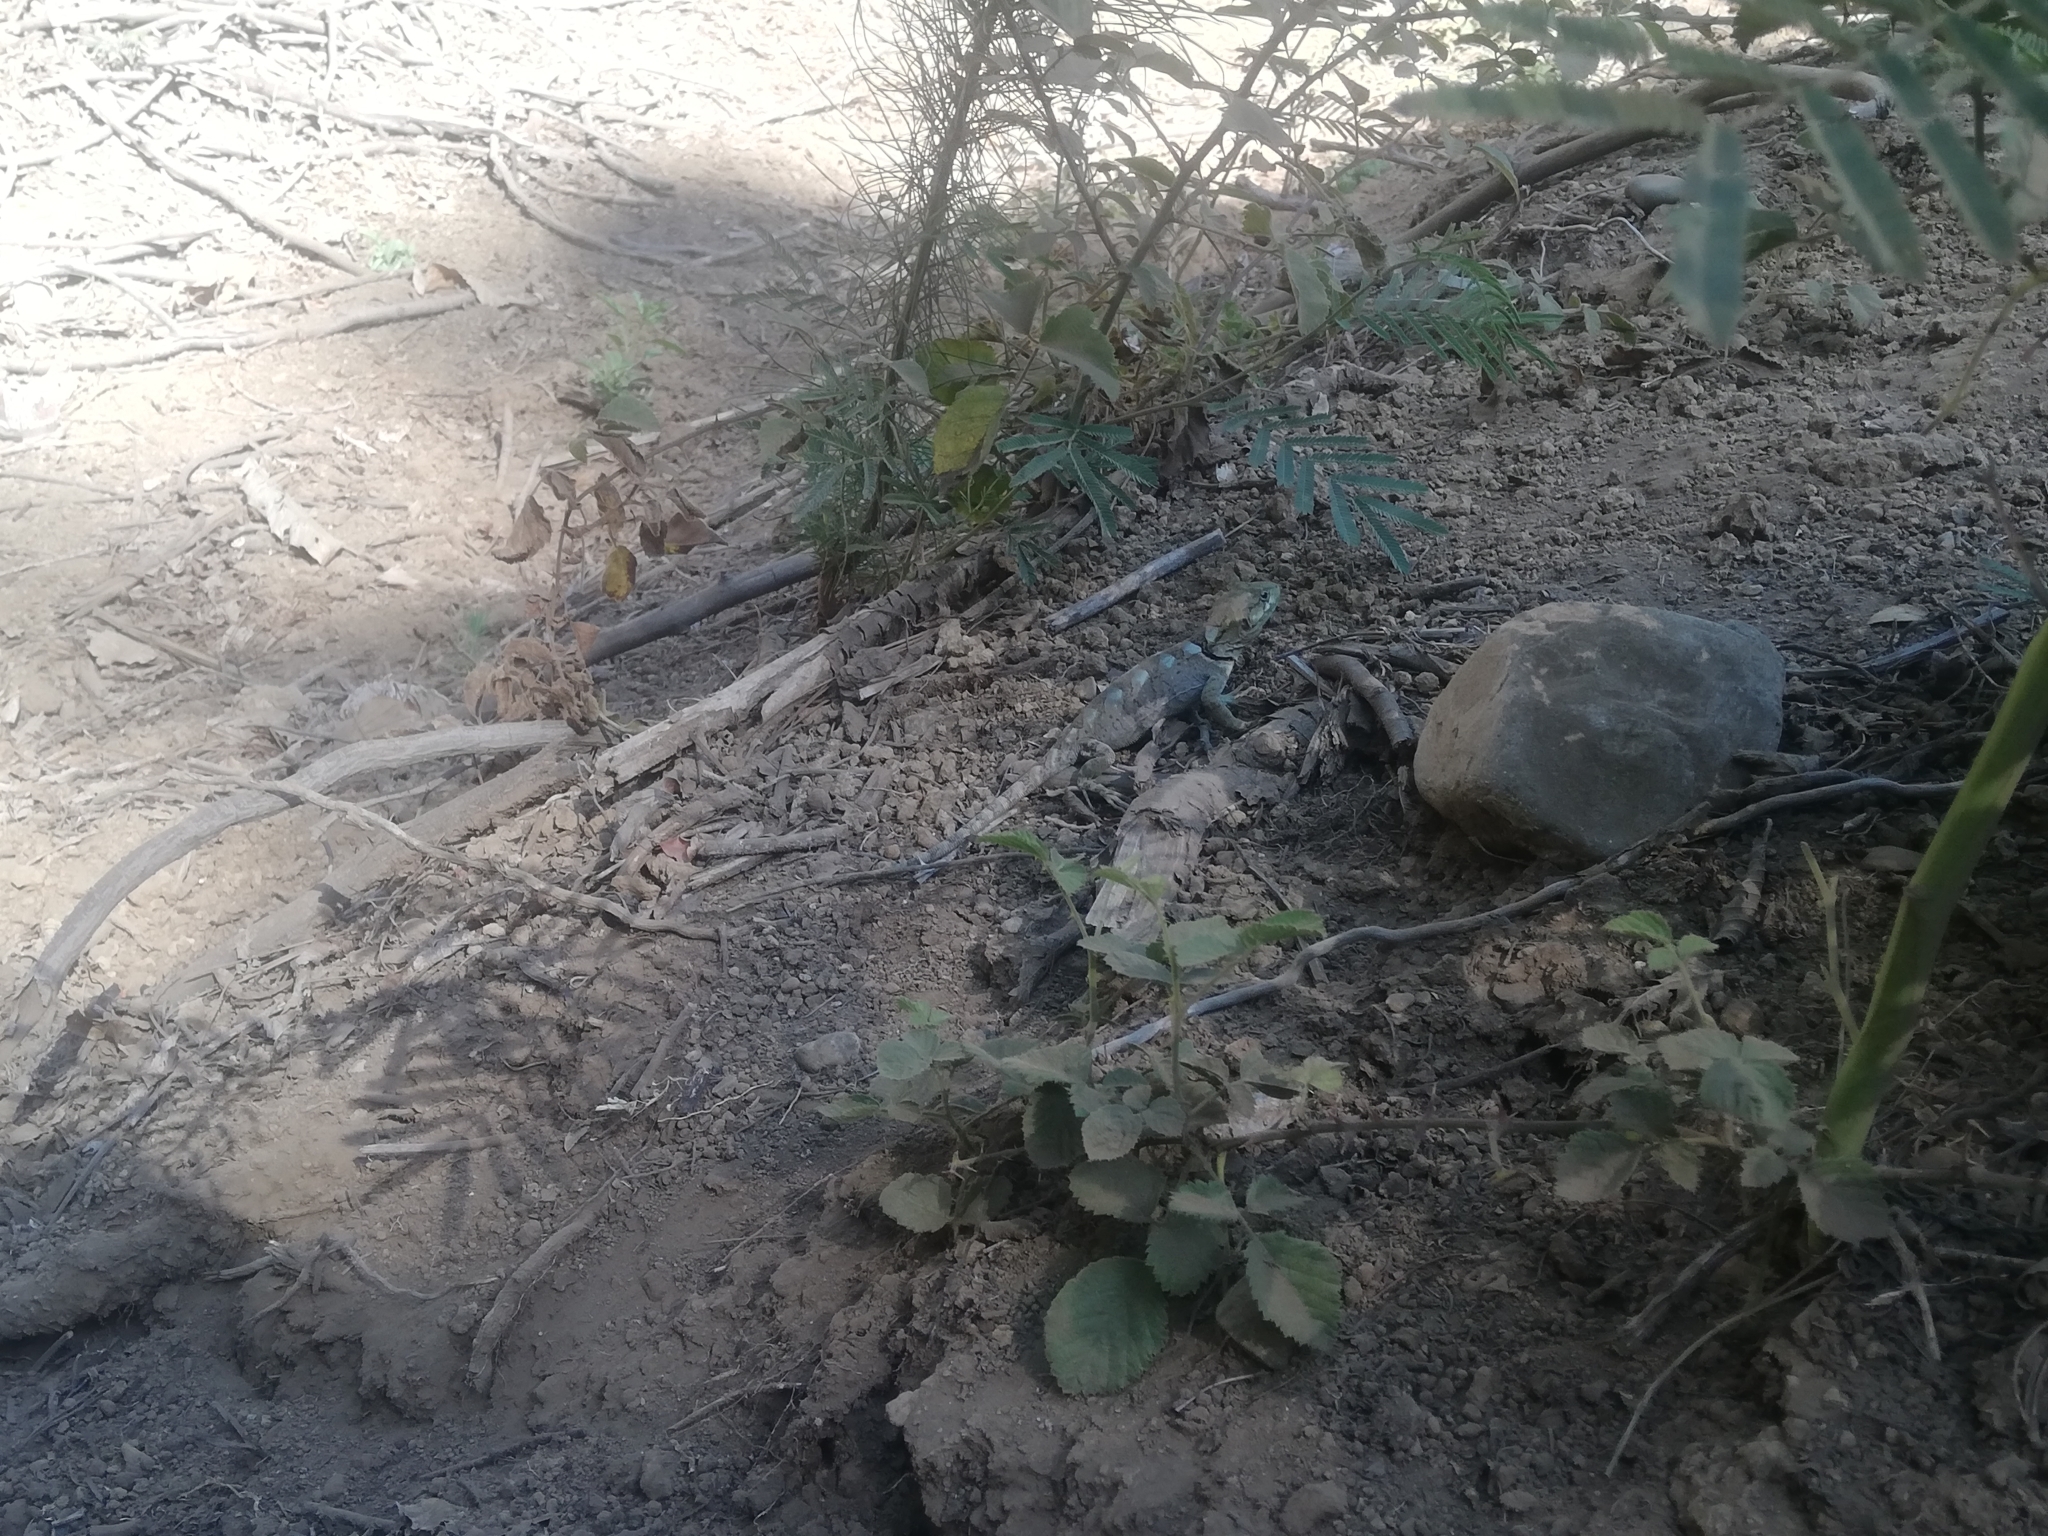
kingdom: Animalia
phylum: Chordata
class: Squamata
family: Leiosauridae
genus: Pristidactylus
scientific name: Pristidactylus torquatus
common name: Southern grumbler
